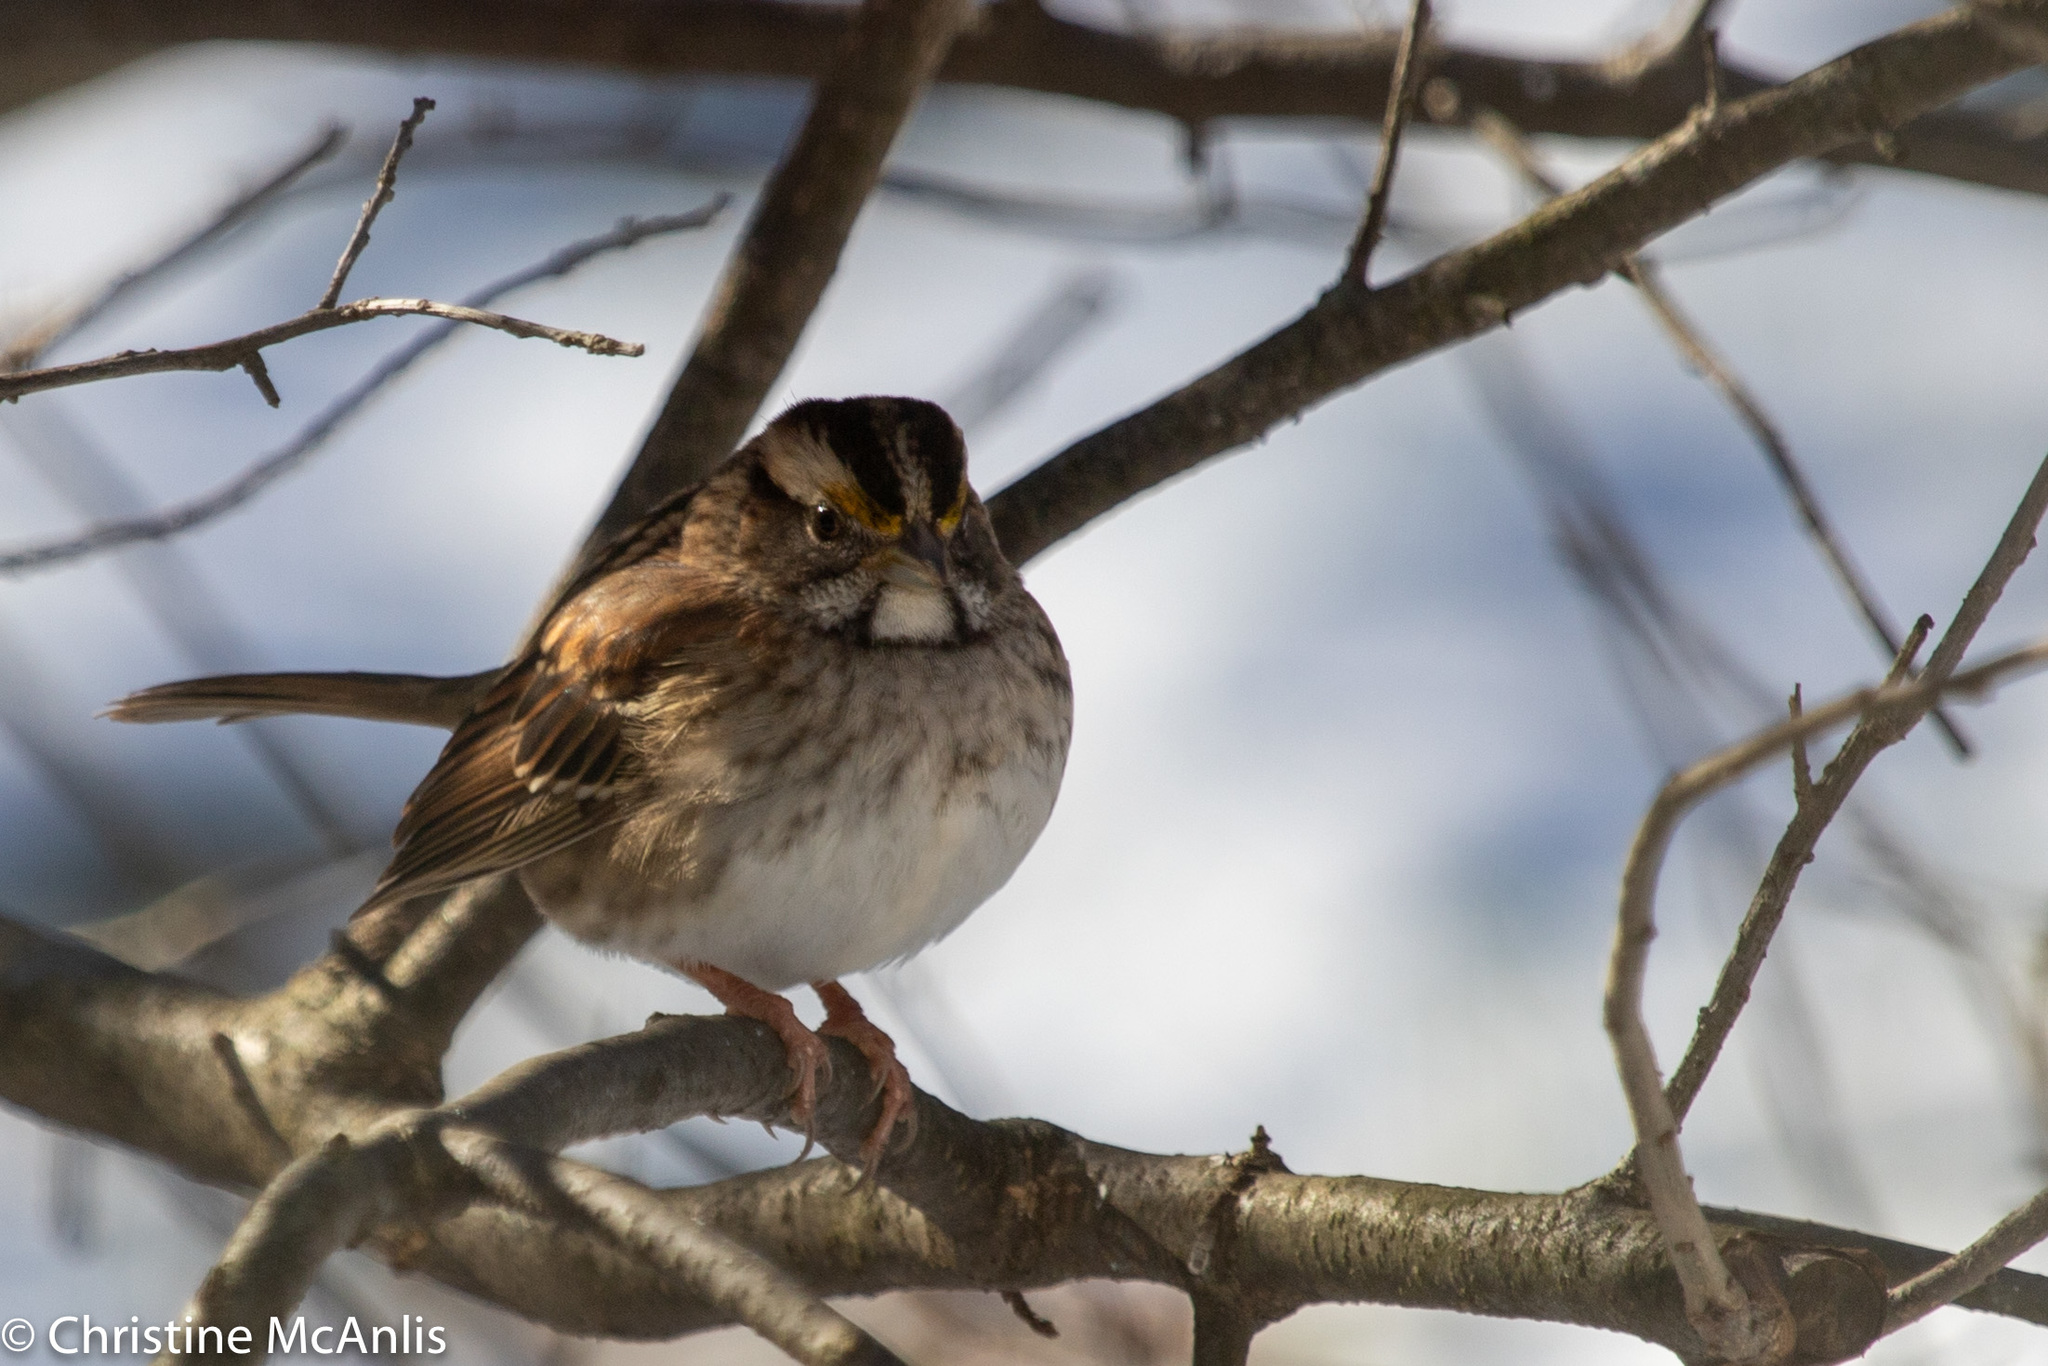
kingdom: Animalia
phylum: Chordata
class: Aves
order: Passeriformes
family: Passerellidae
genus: Zonotrichia
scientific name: Zonotrichia albicollis
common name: White-throated sparrow
